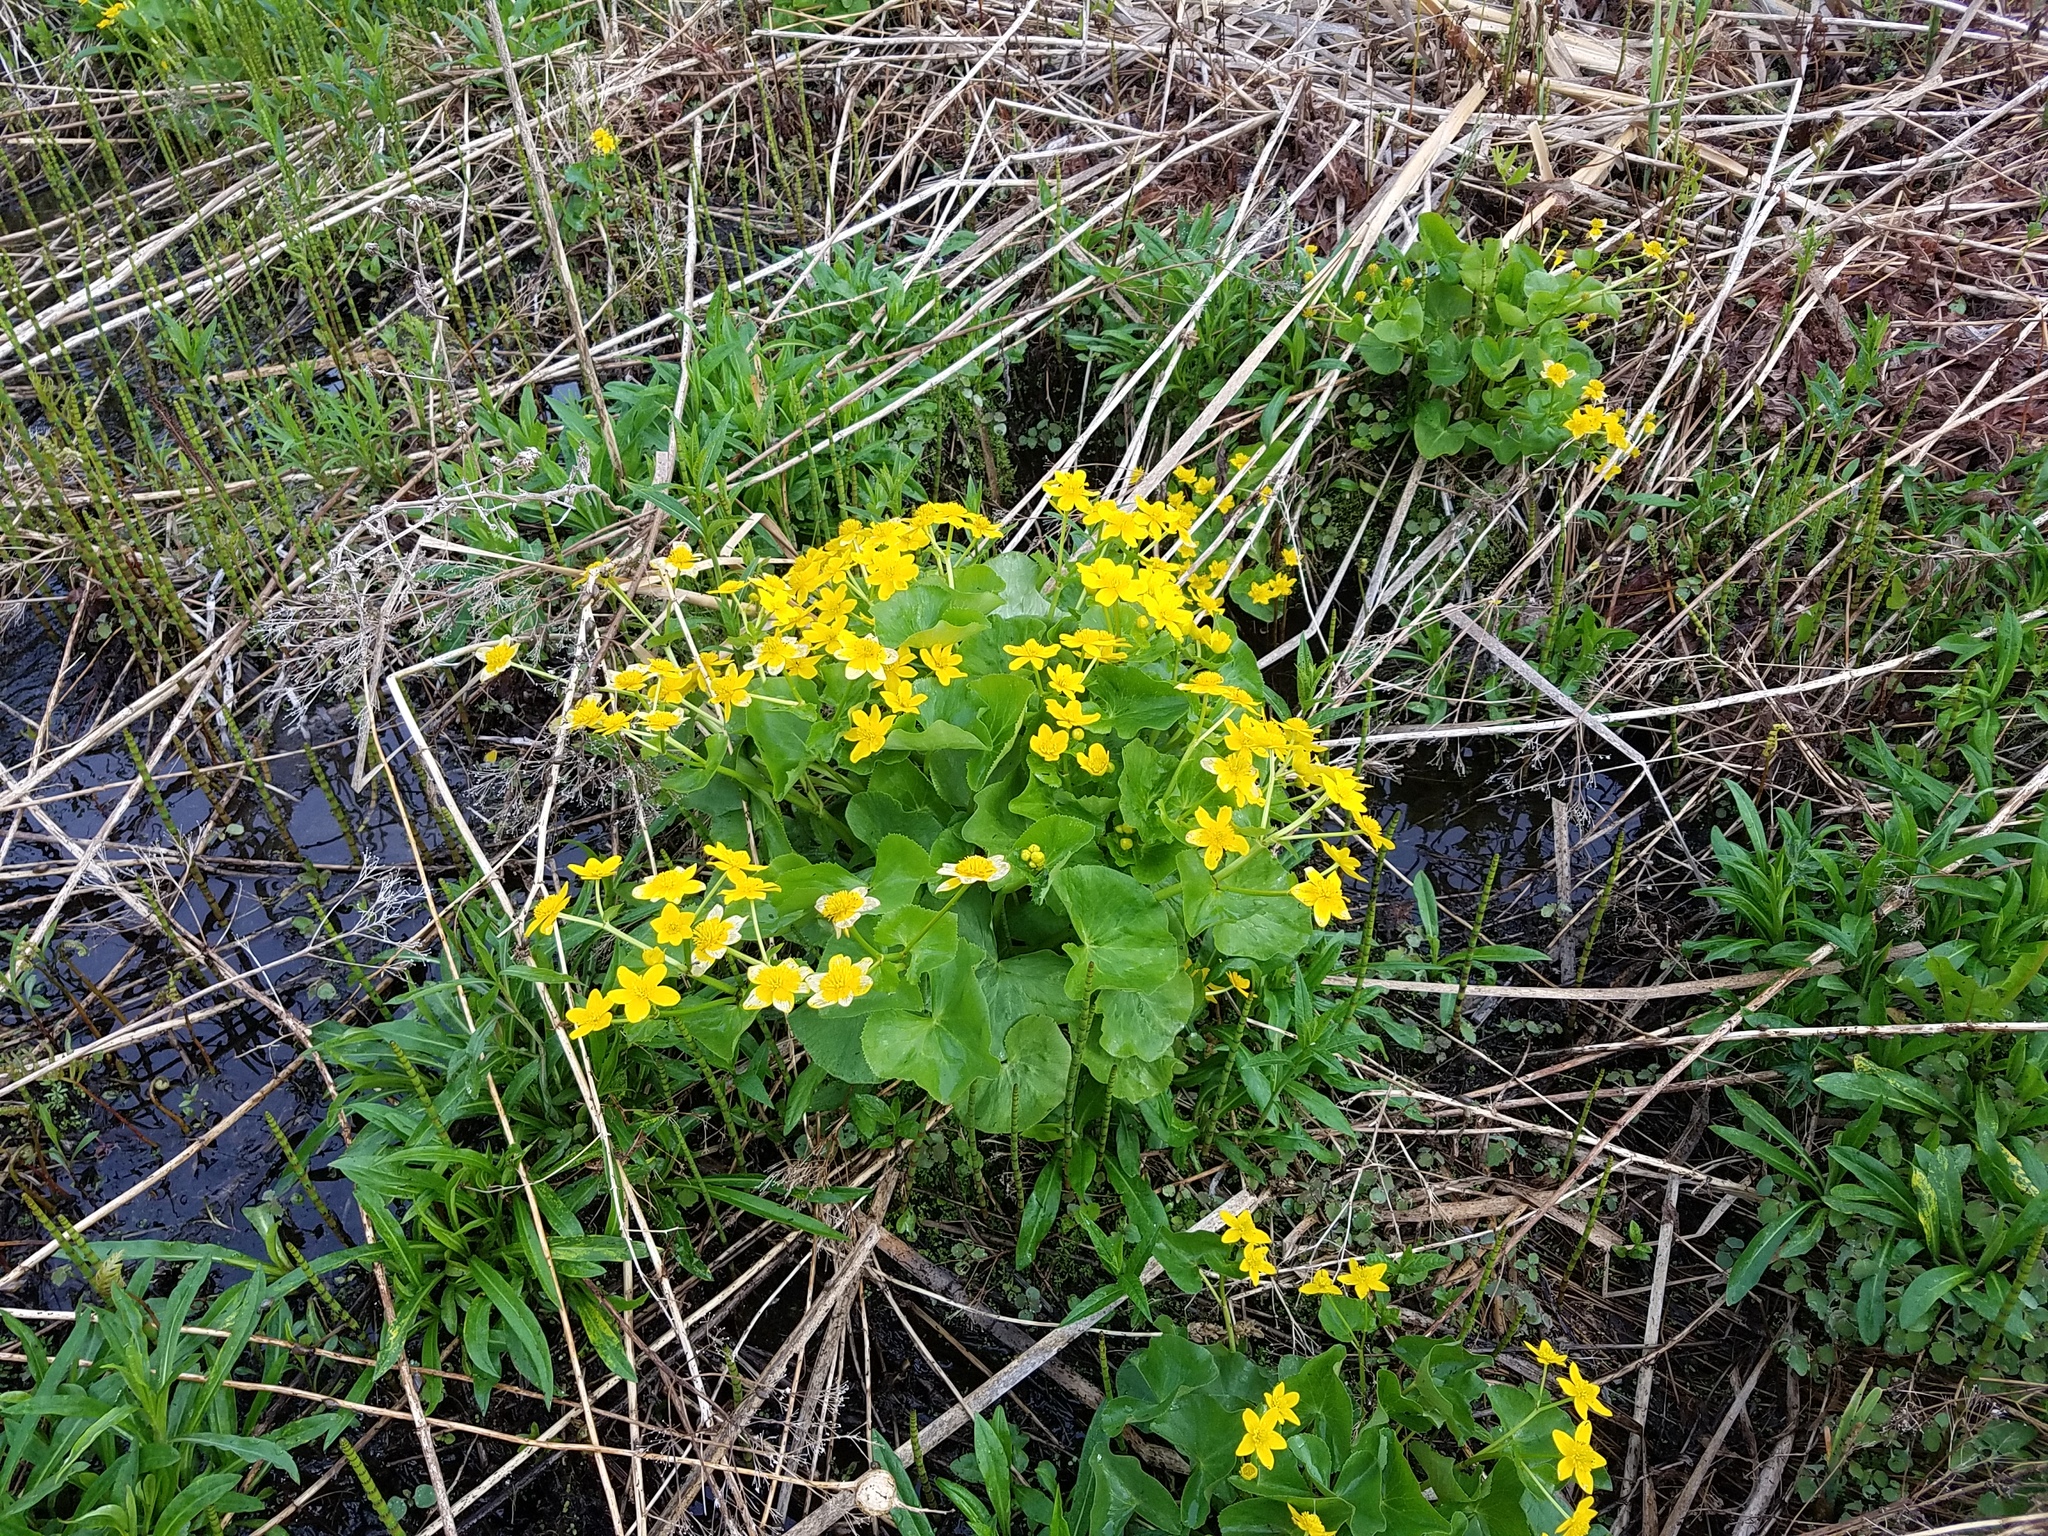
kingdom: Plantae
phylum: Tracheophyta
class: Magnoliopsida
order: Ranunculales
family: Ranunculaceae
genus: Caltha
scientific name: Caltha palustris
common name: Marsh marigold
